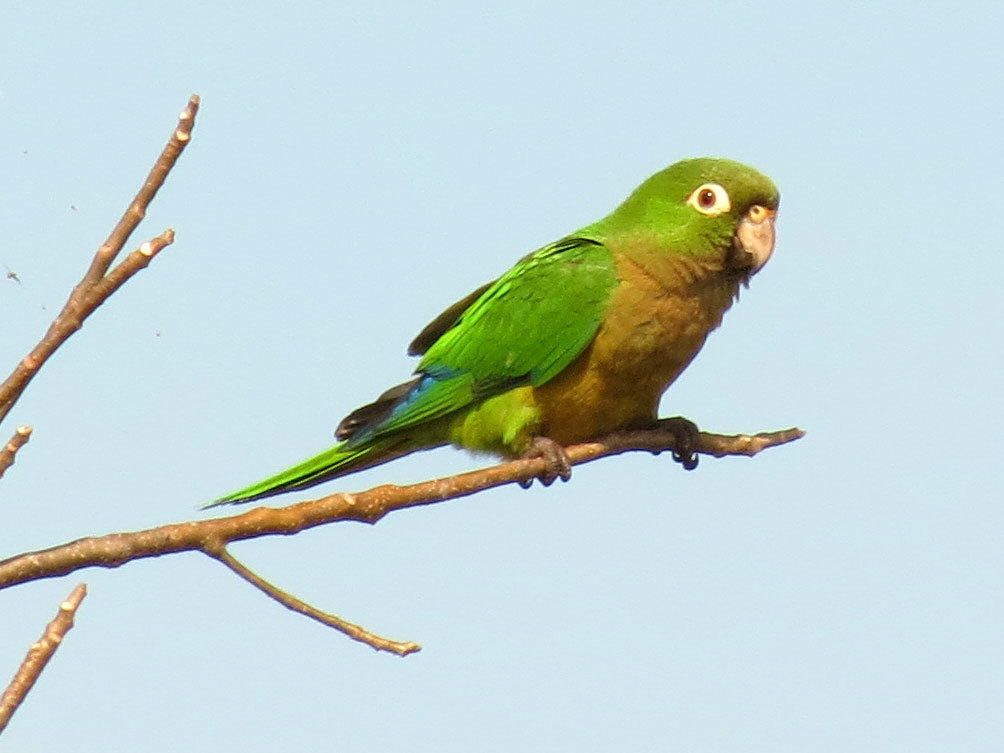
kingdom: Animalia
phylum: Chordata
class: Aves
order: Psittaciformes
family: Psittacidae
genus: Aratinga
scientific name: Aratinga nana
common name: Olive-throated parakeet
